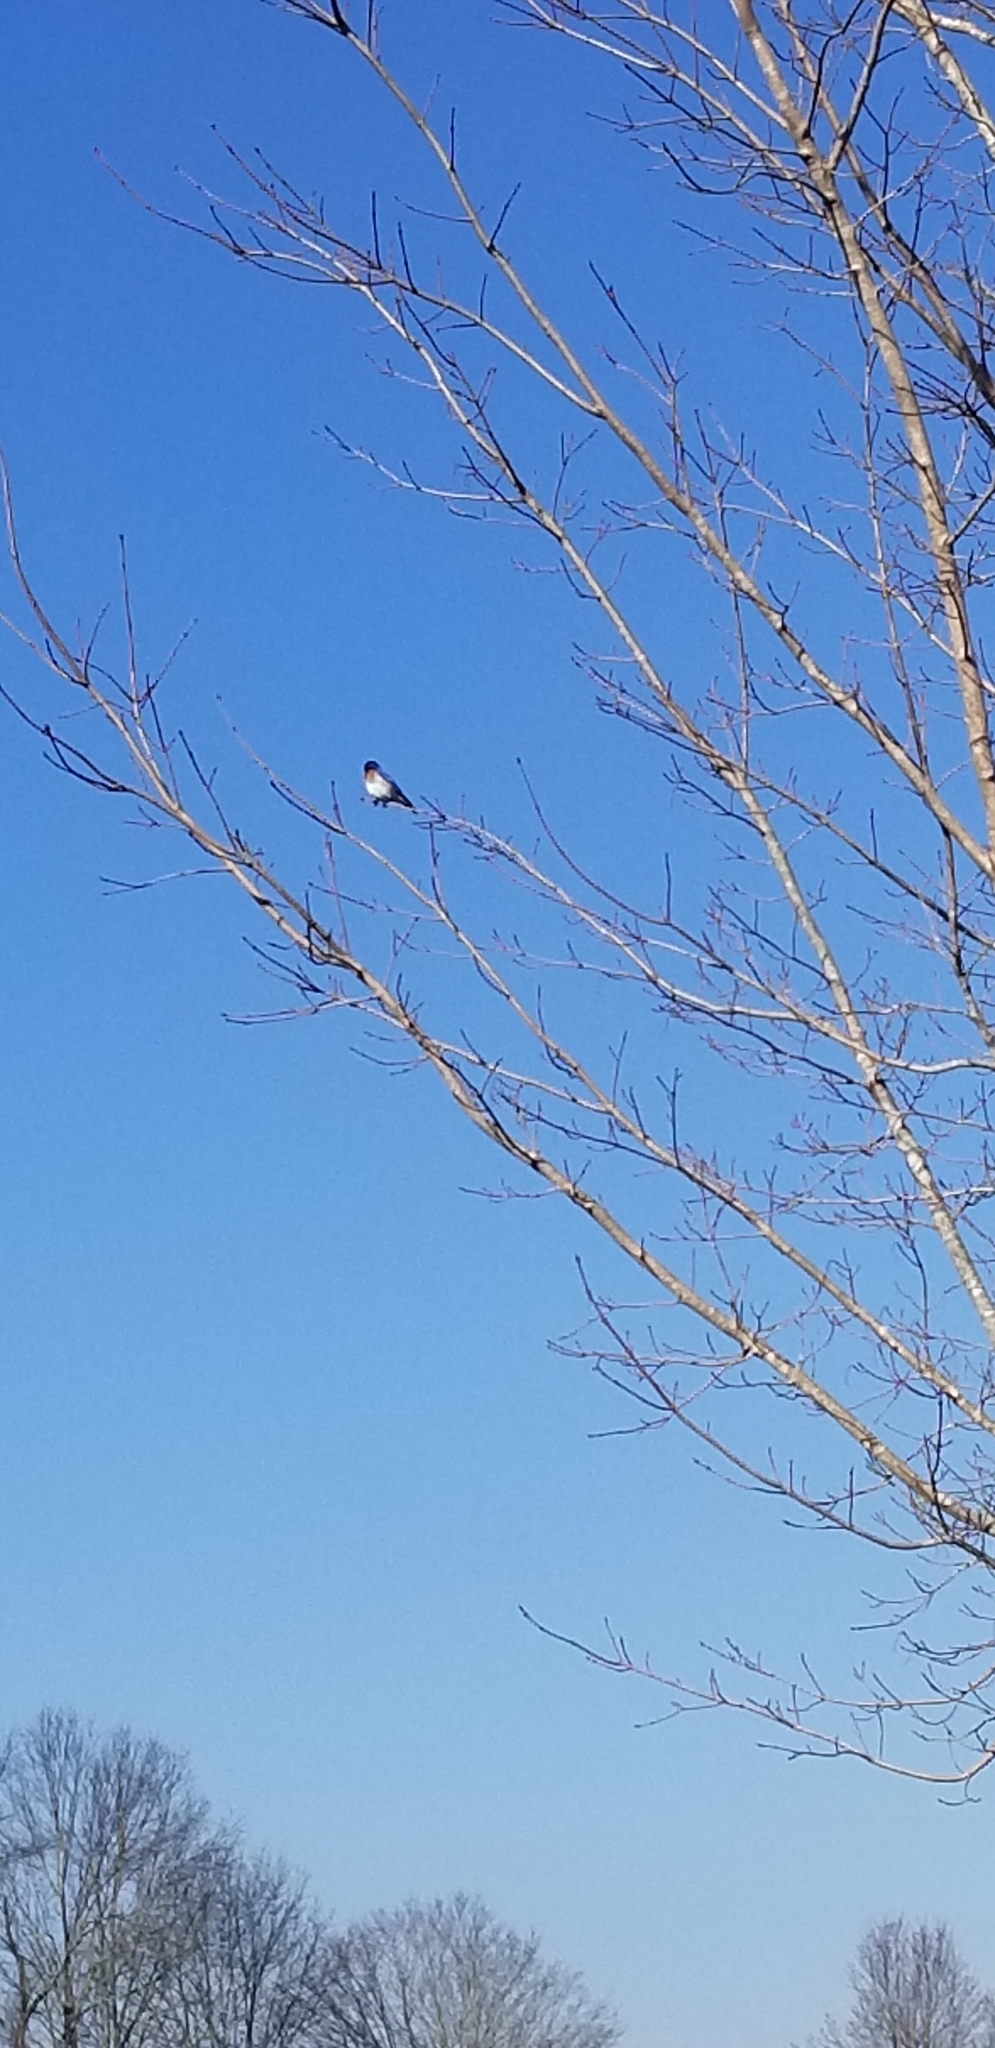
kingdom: Animalia
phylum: Chordata
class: Aves
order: Passeriformes
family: Turdidae
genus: Sialia
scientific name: Sialia sialis
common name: Eastern bluebird
